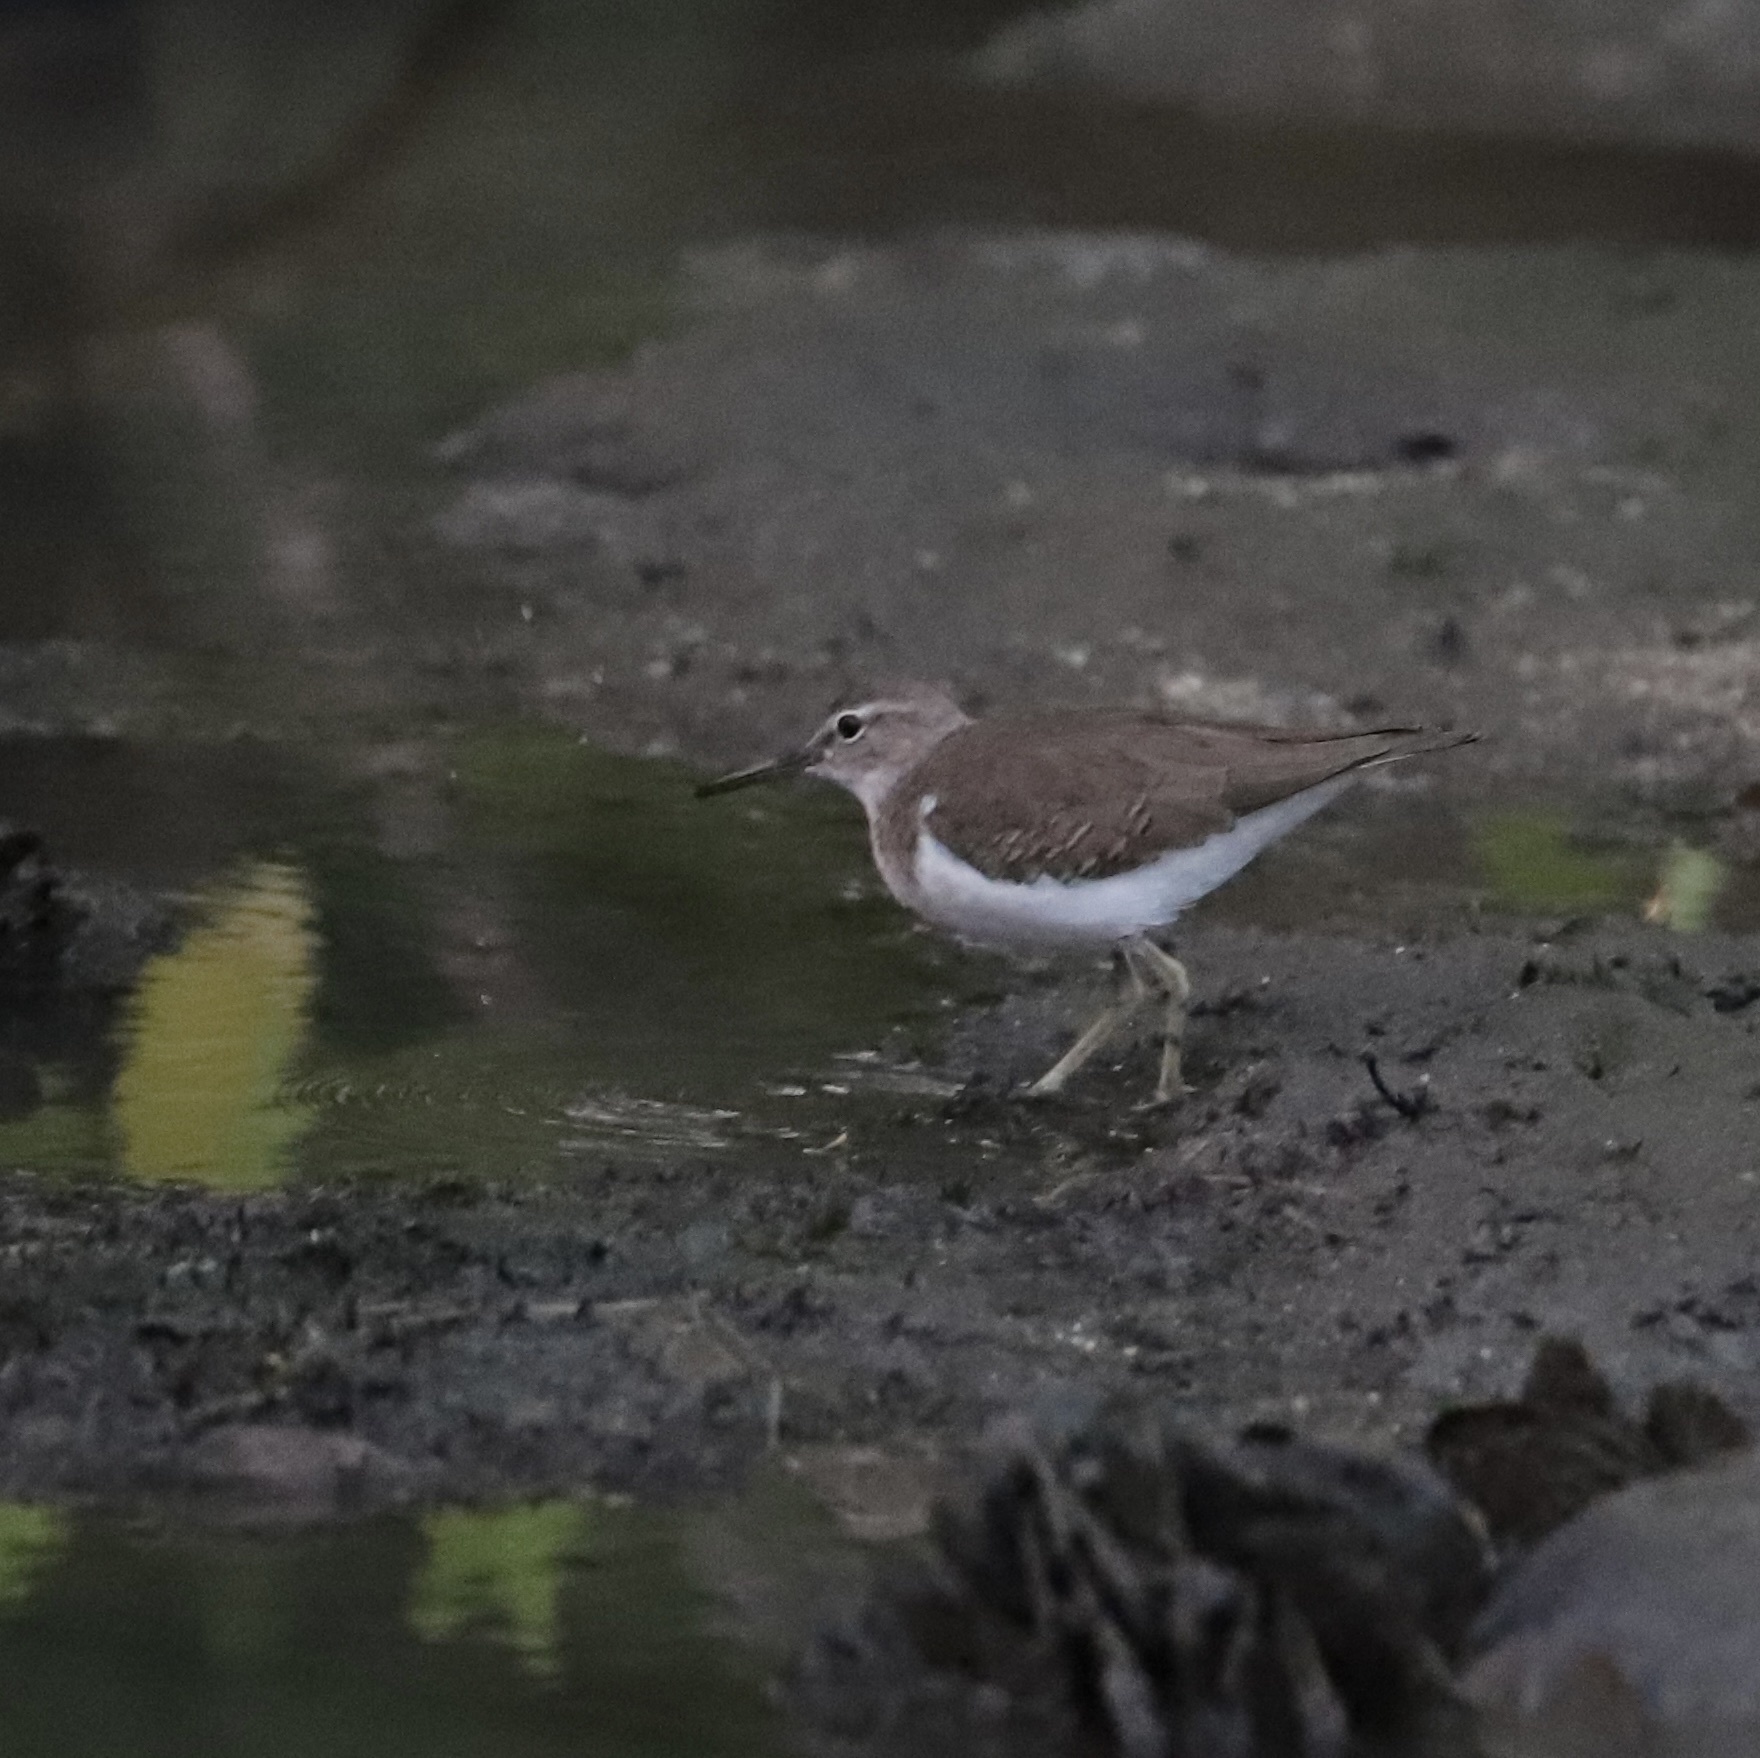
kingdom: Animalia
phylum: Chordata
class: Aves
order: Charadriiformes
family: Scolopacidae
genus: Actitis
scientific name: Actitis macularius
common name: Spotted sandpiper
